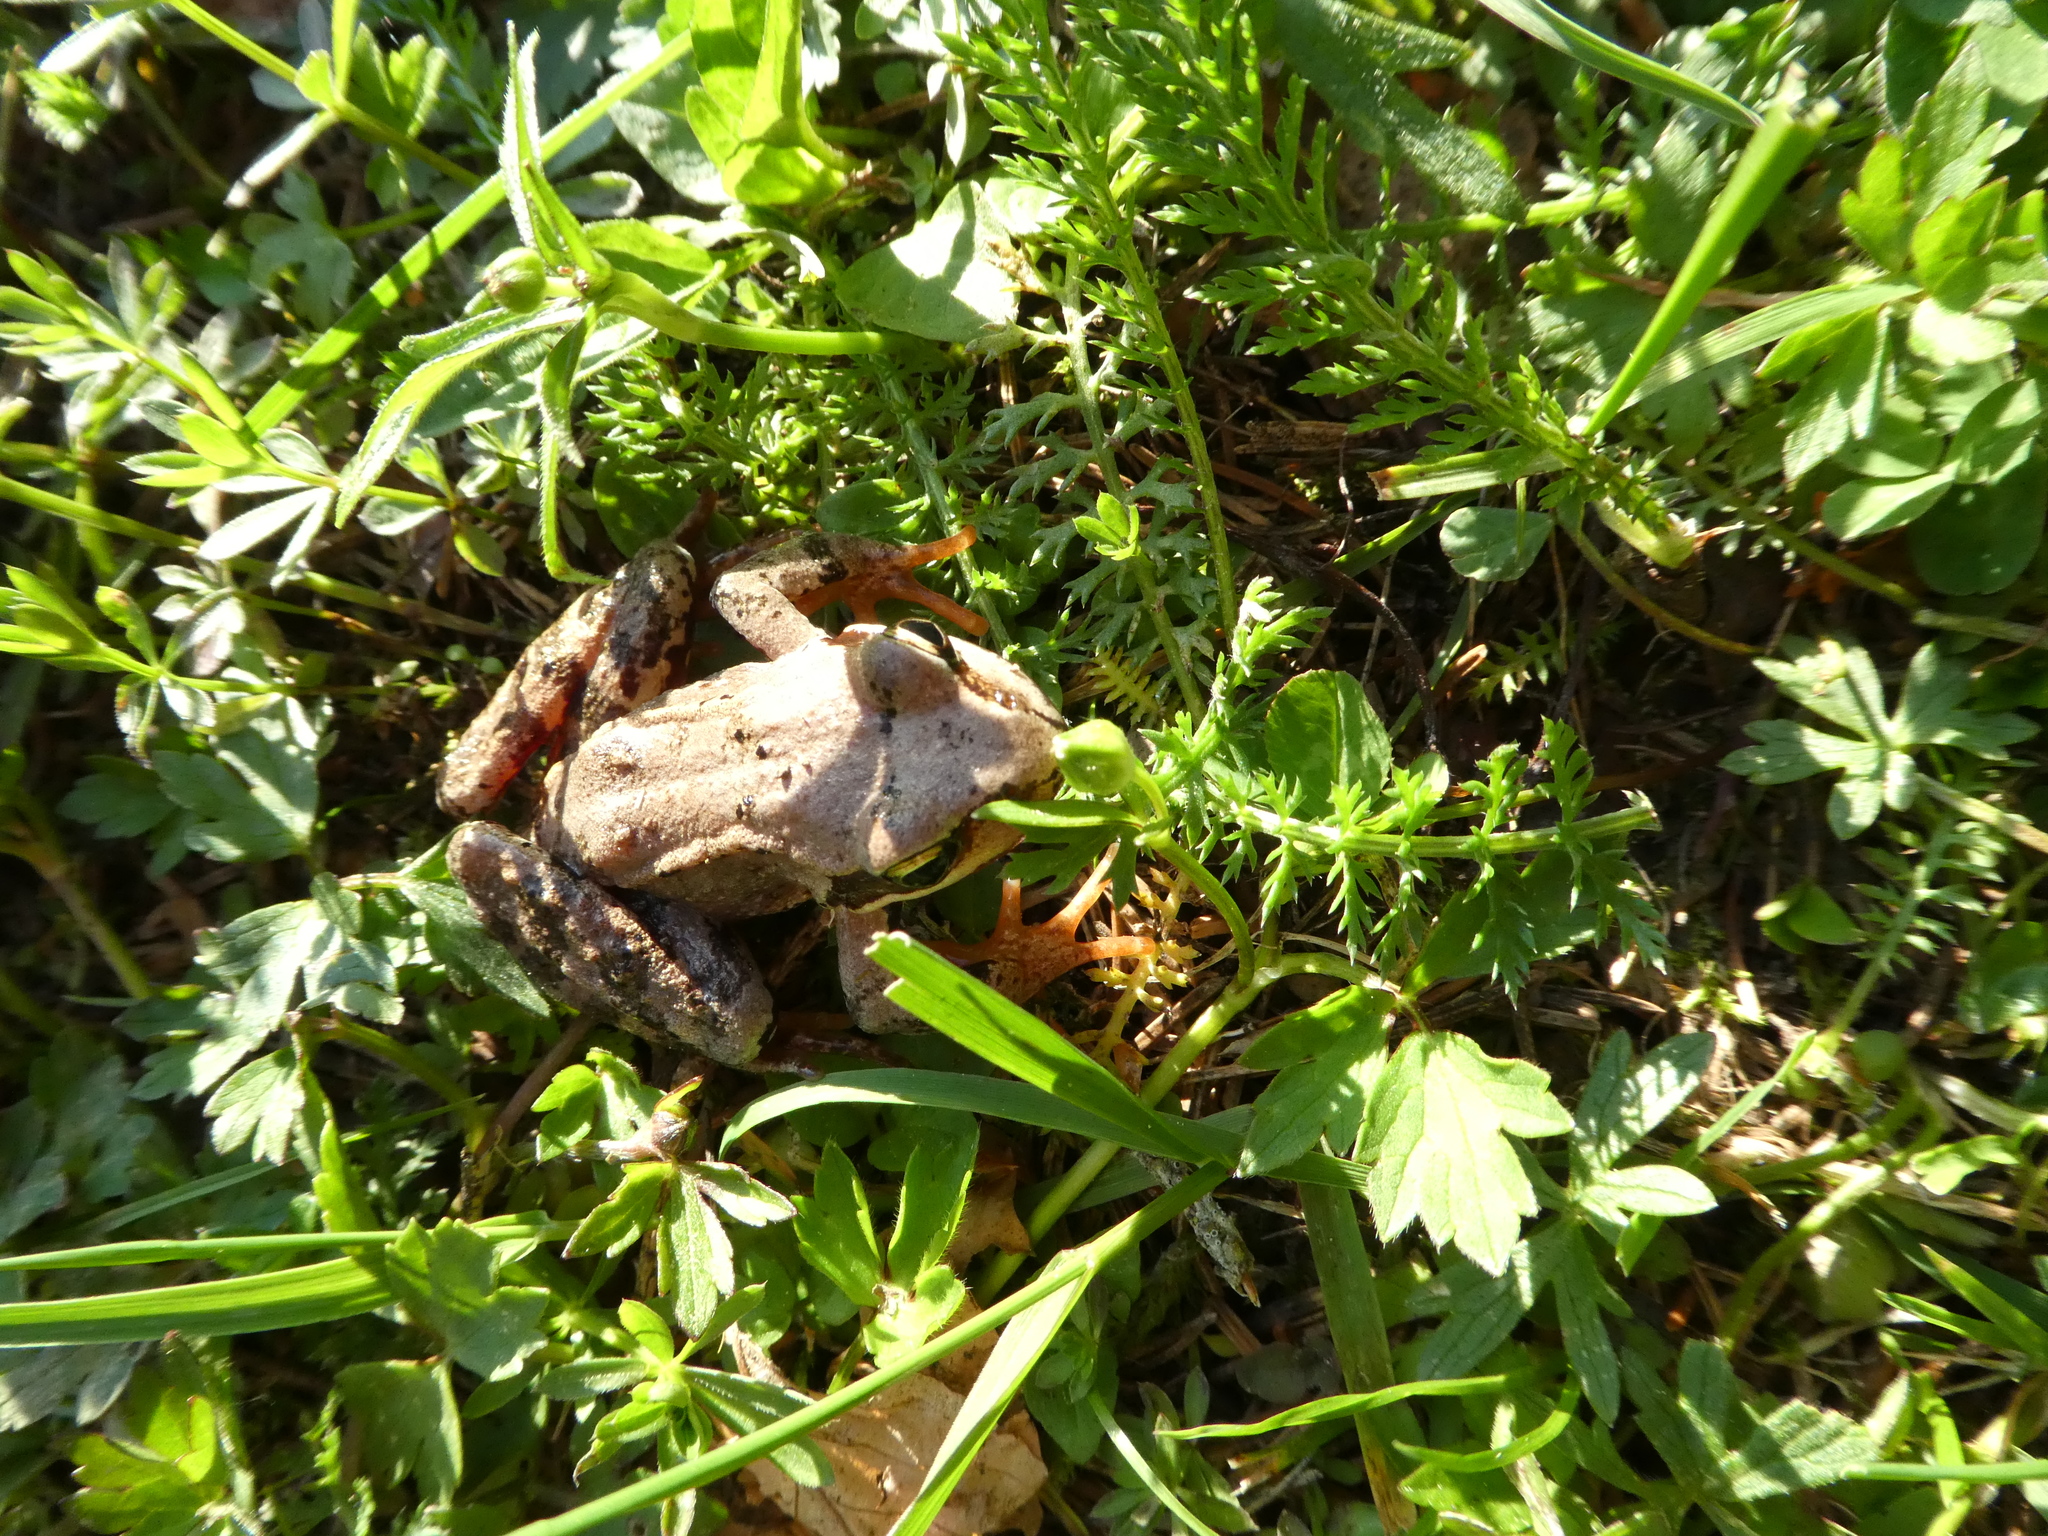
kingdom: Animalia
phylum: Chordata
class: Amphibia
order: Anura
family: Ranidae
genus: Rana
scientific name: Rana dalmatina
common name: Agile frog
